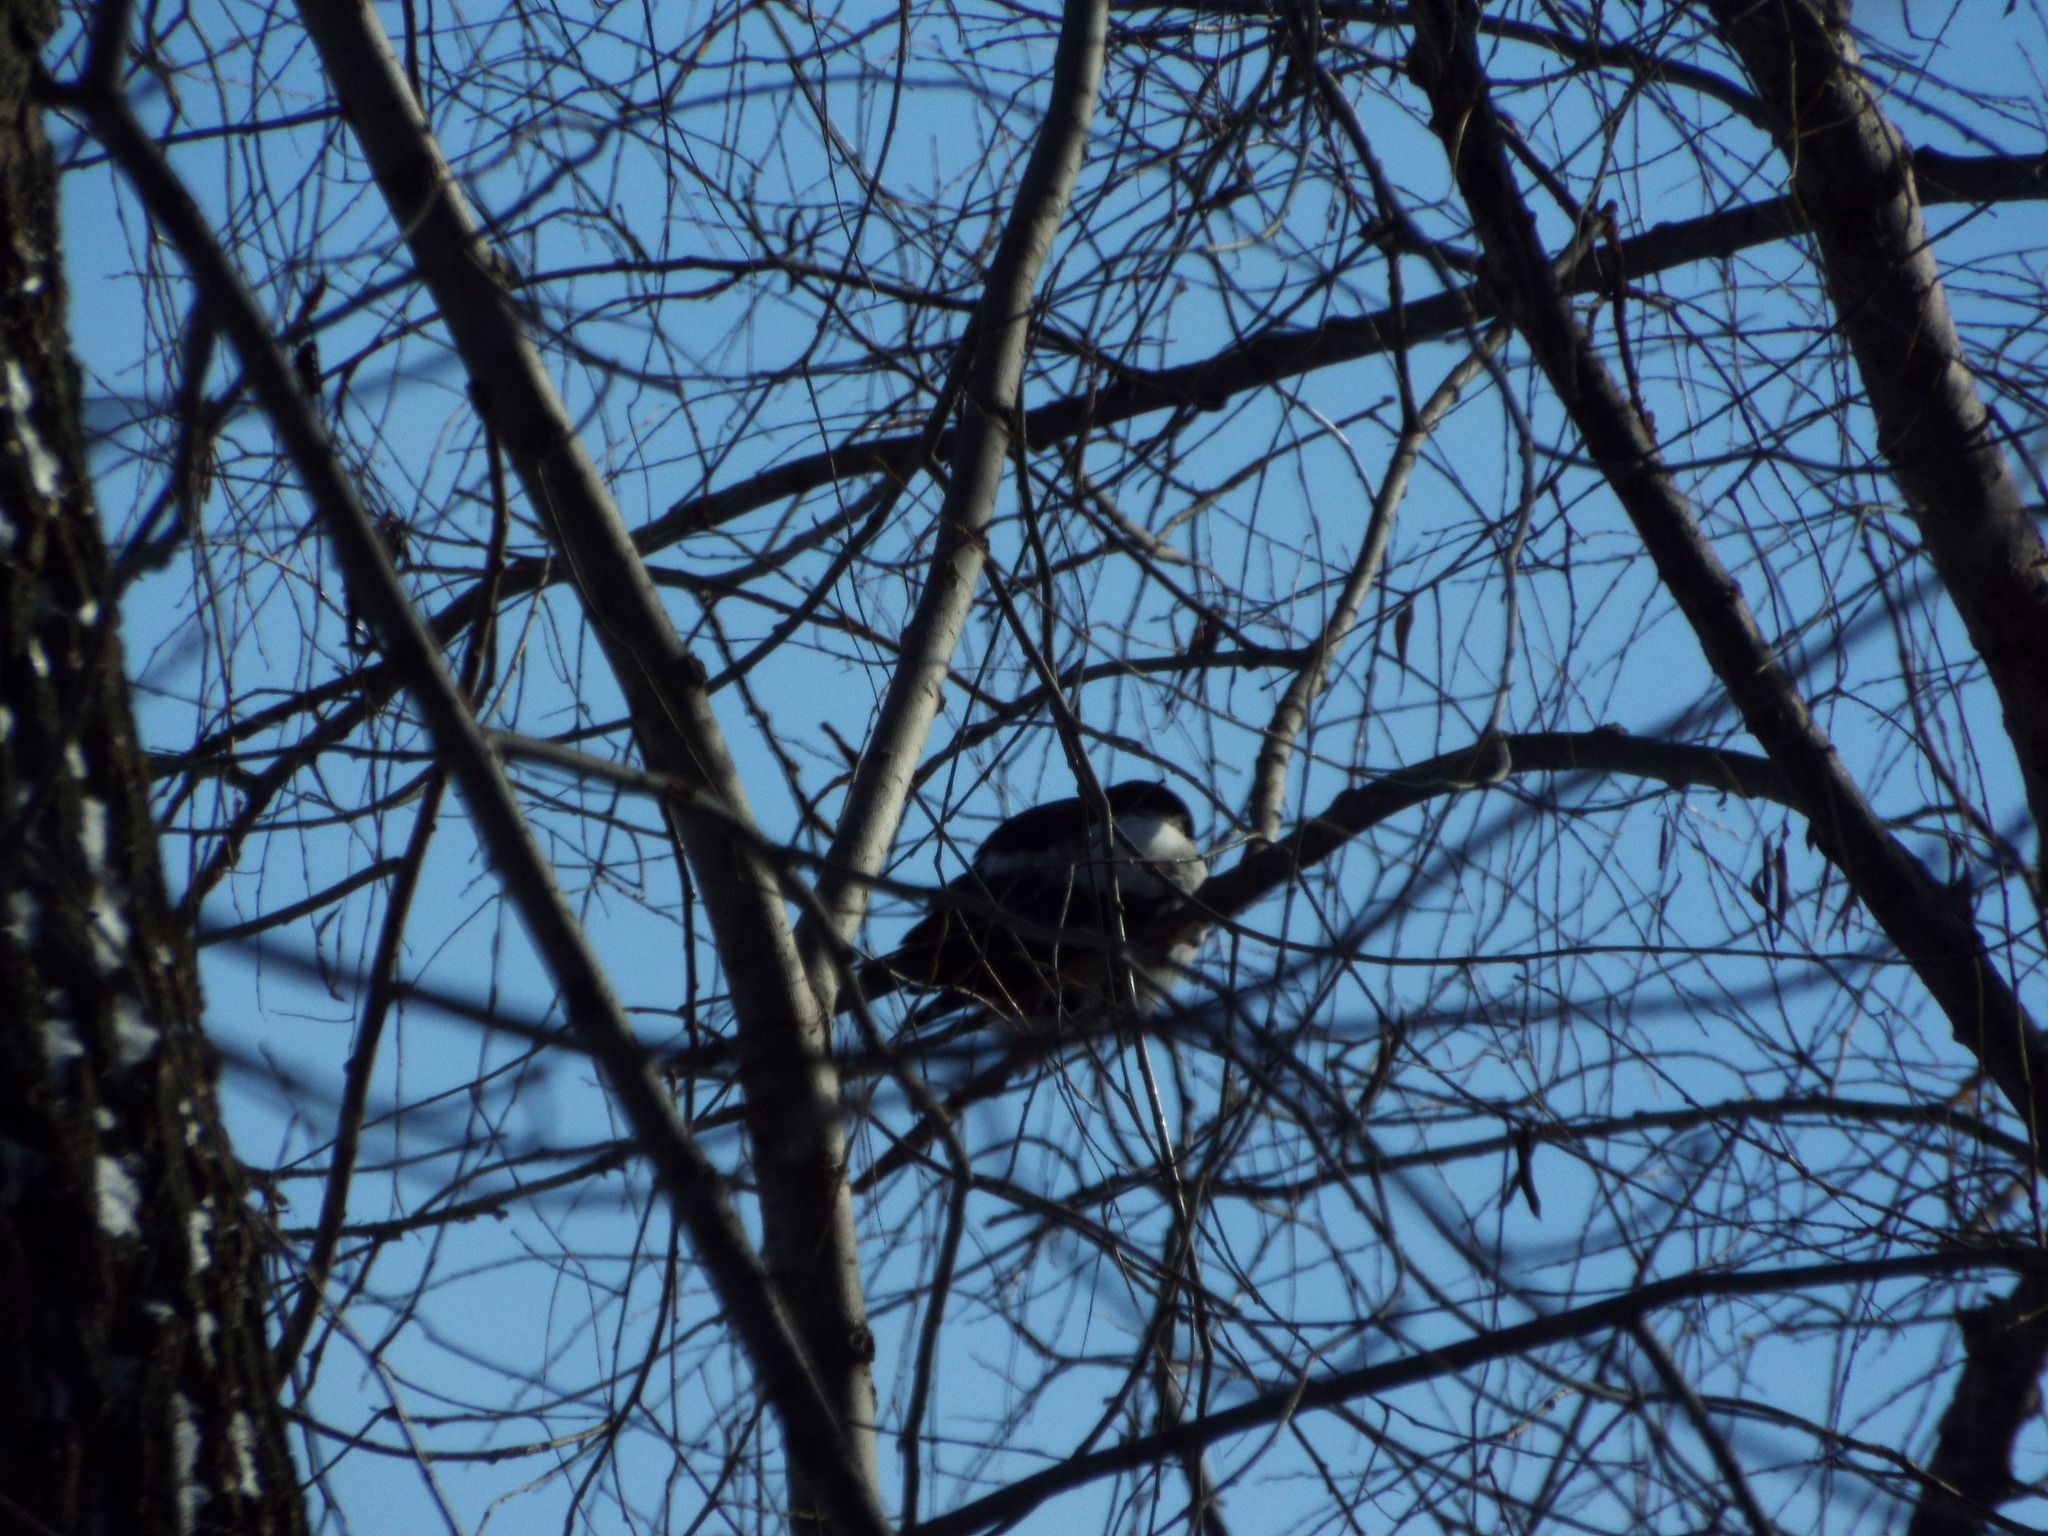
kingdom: Animalia
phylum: Chordata
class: Aves
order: Passeriformes
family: Corvidae
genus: Pica
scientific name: Pica pica
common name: Eurasian magpie
